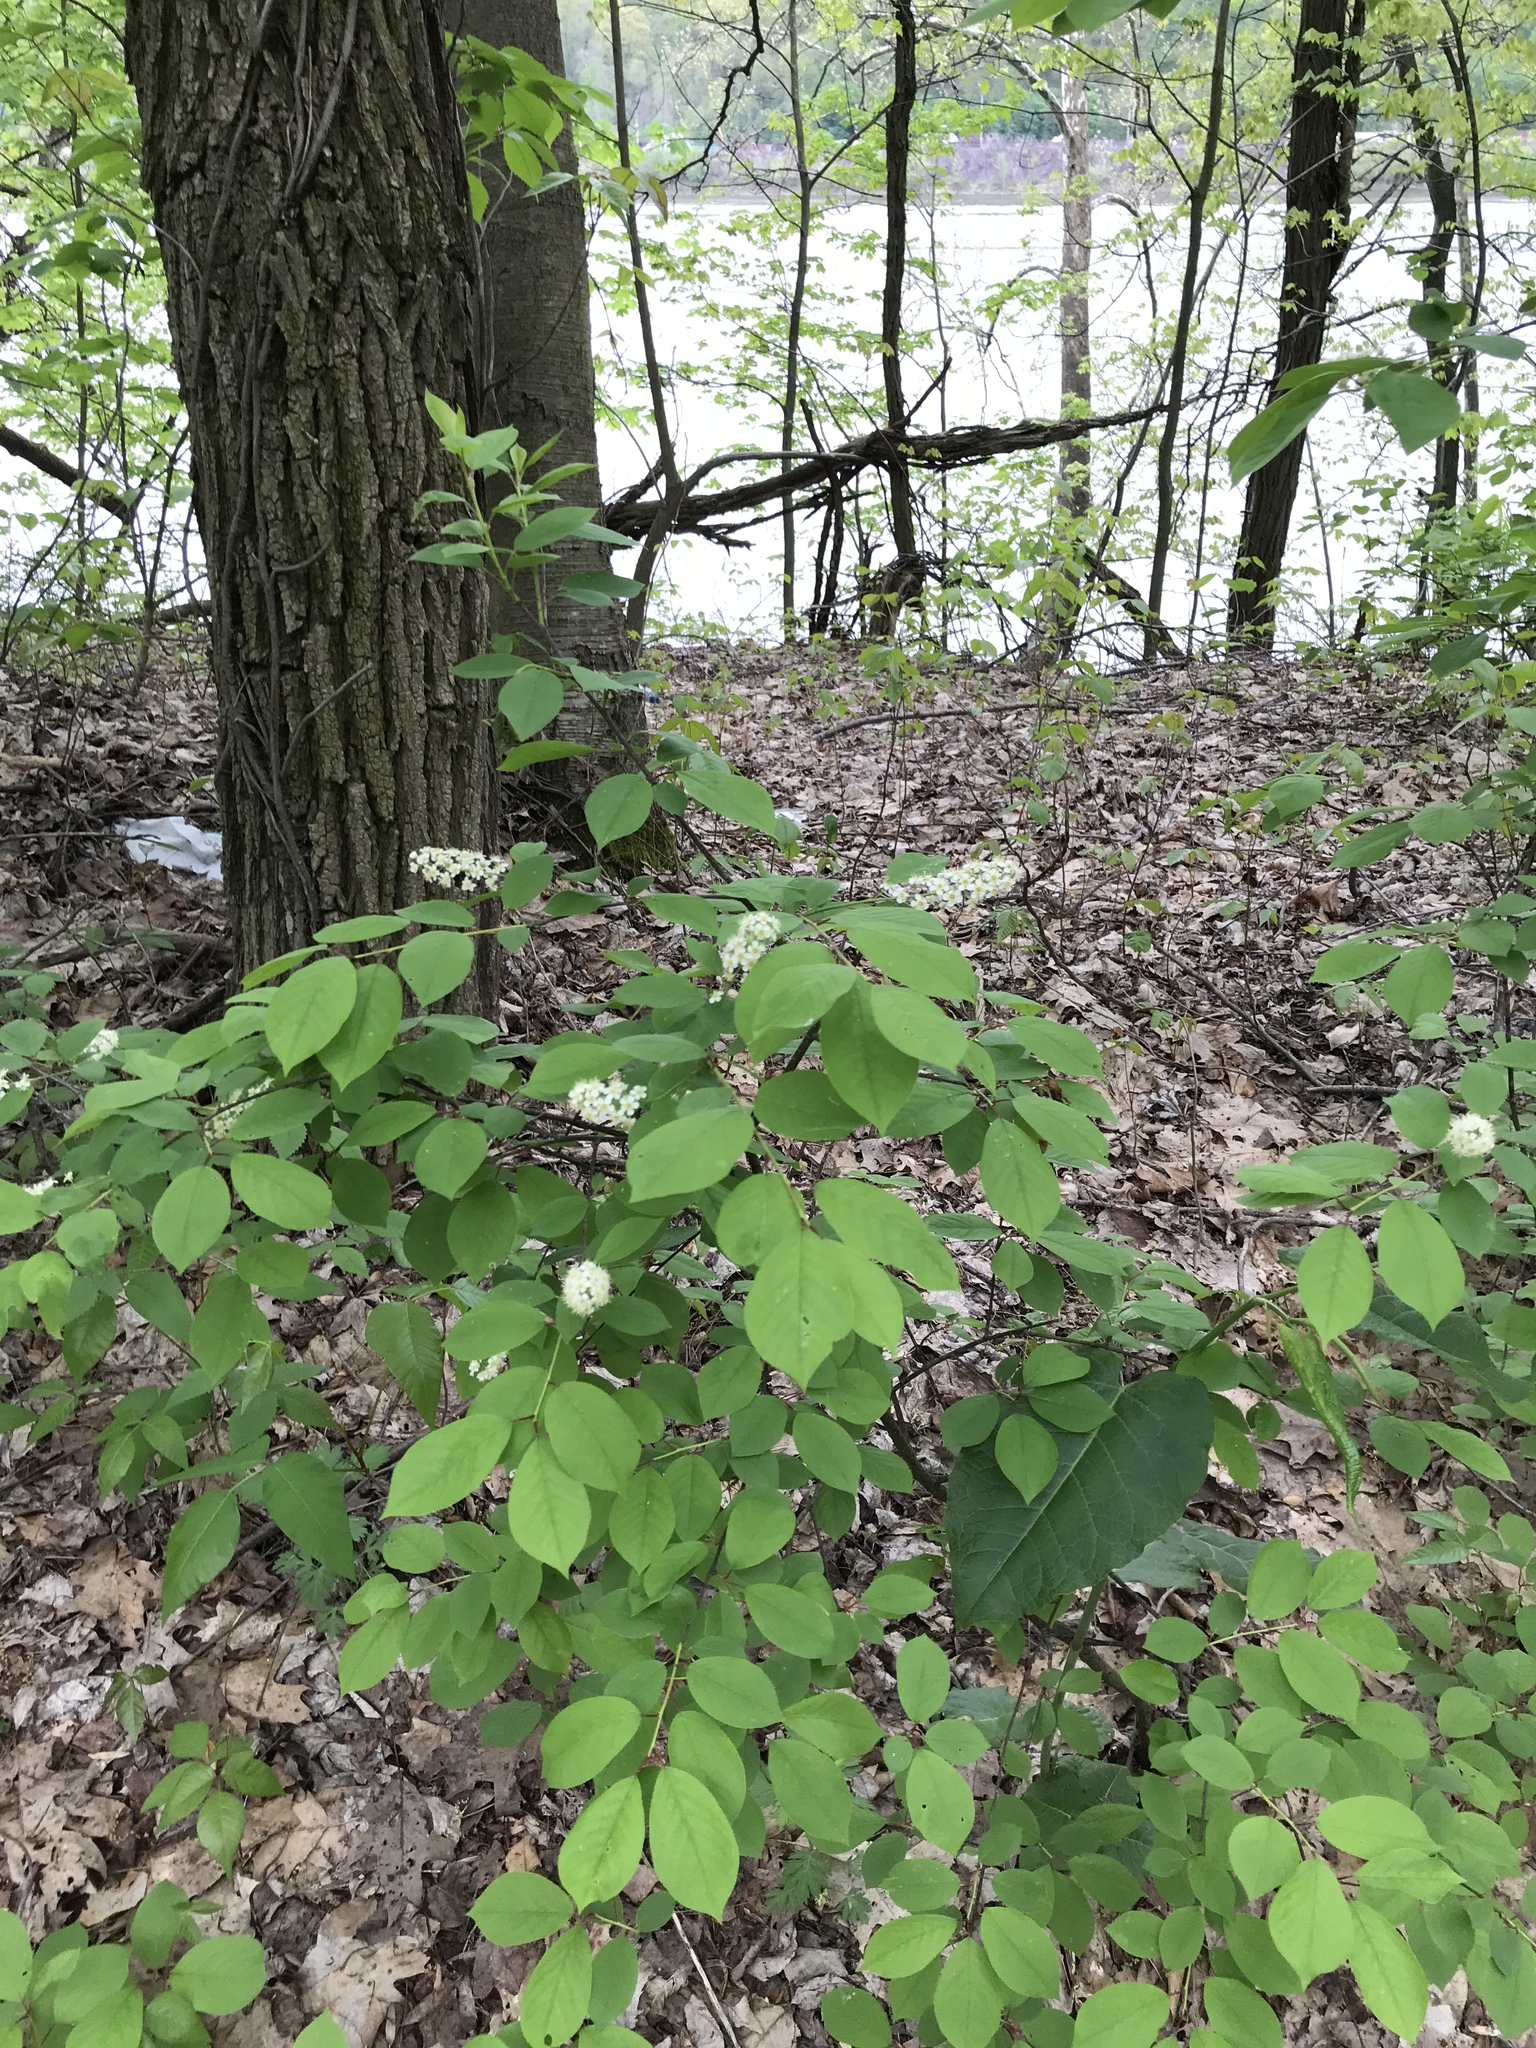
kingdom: Plantae
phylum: Tracheophyta
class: Magnoliopsida
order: Rosales
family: Rosaceae
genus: Prunus
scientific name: Prunus virginiana
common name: Chokecherry
